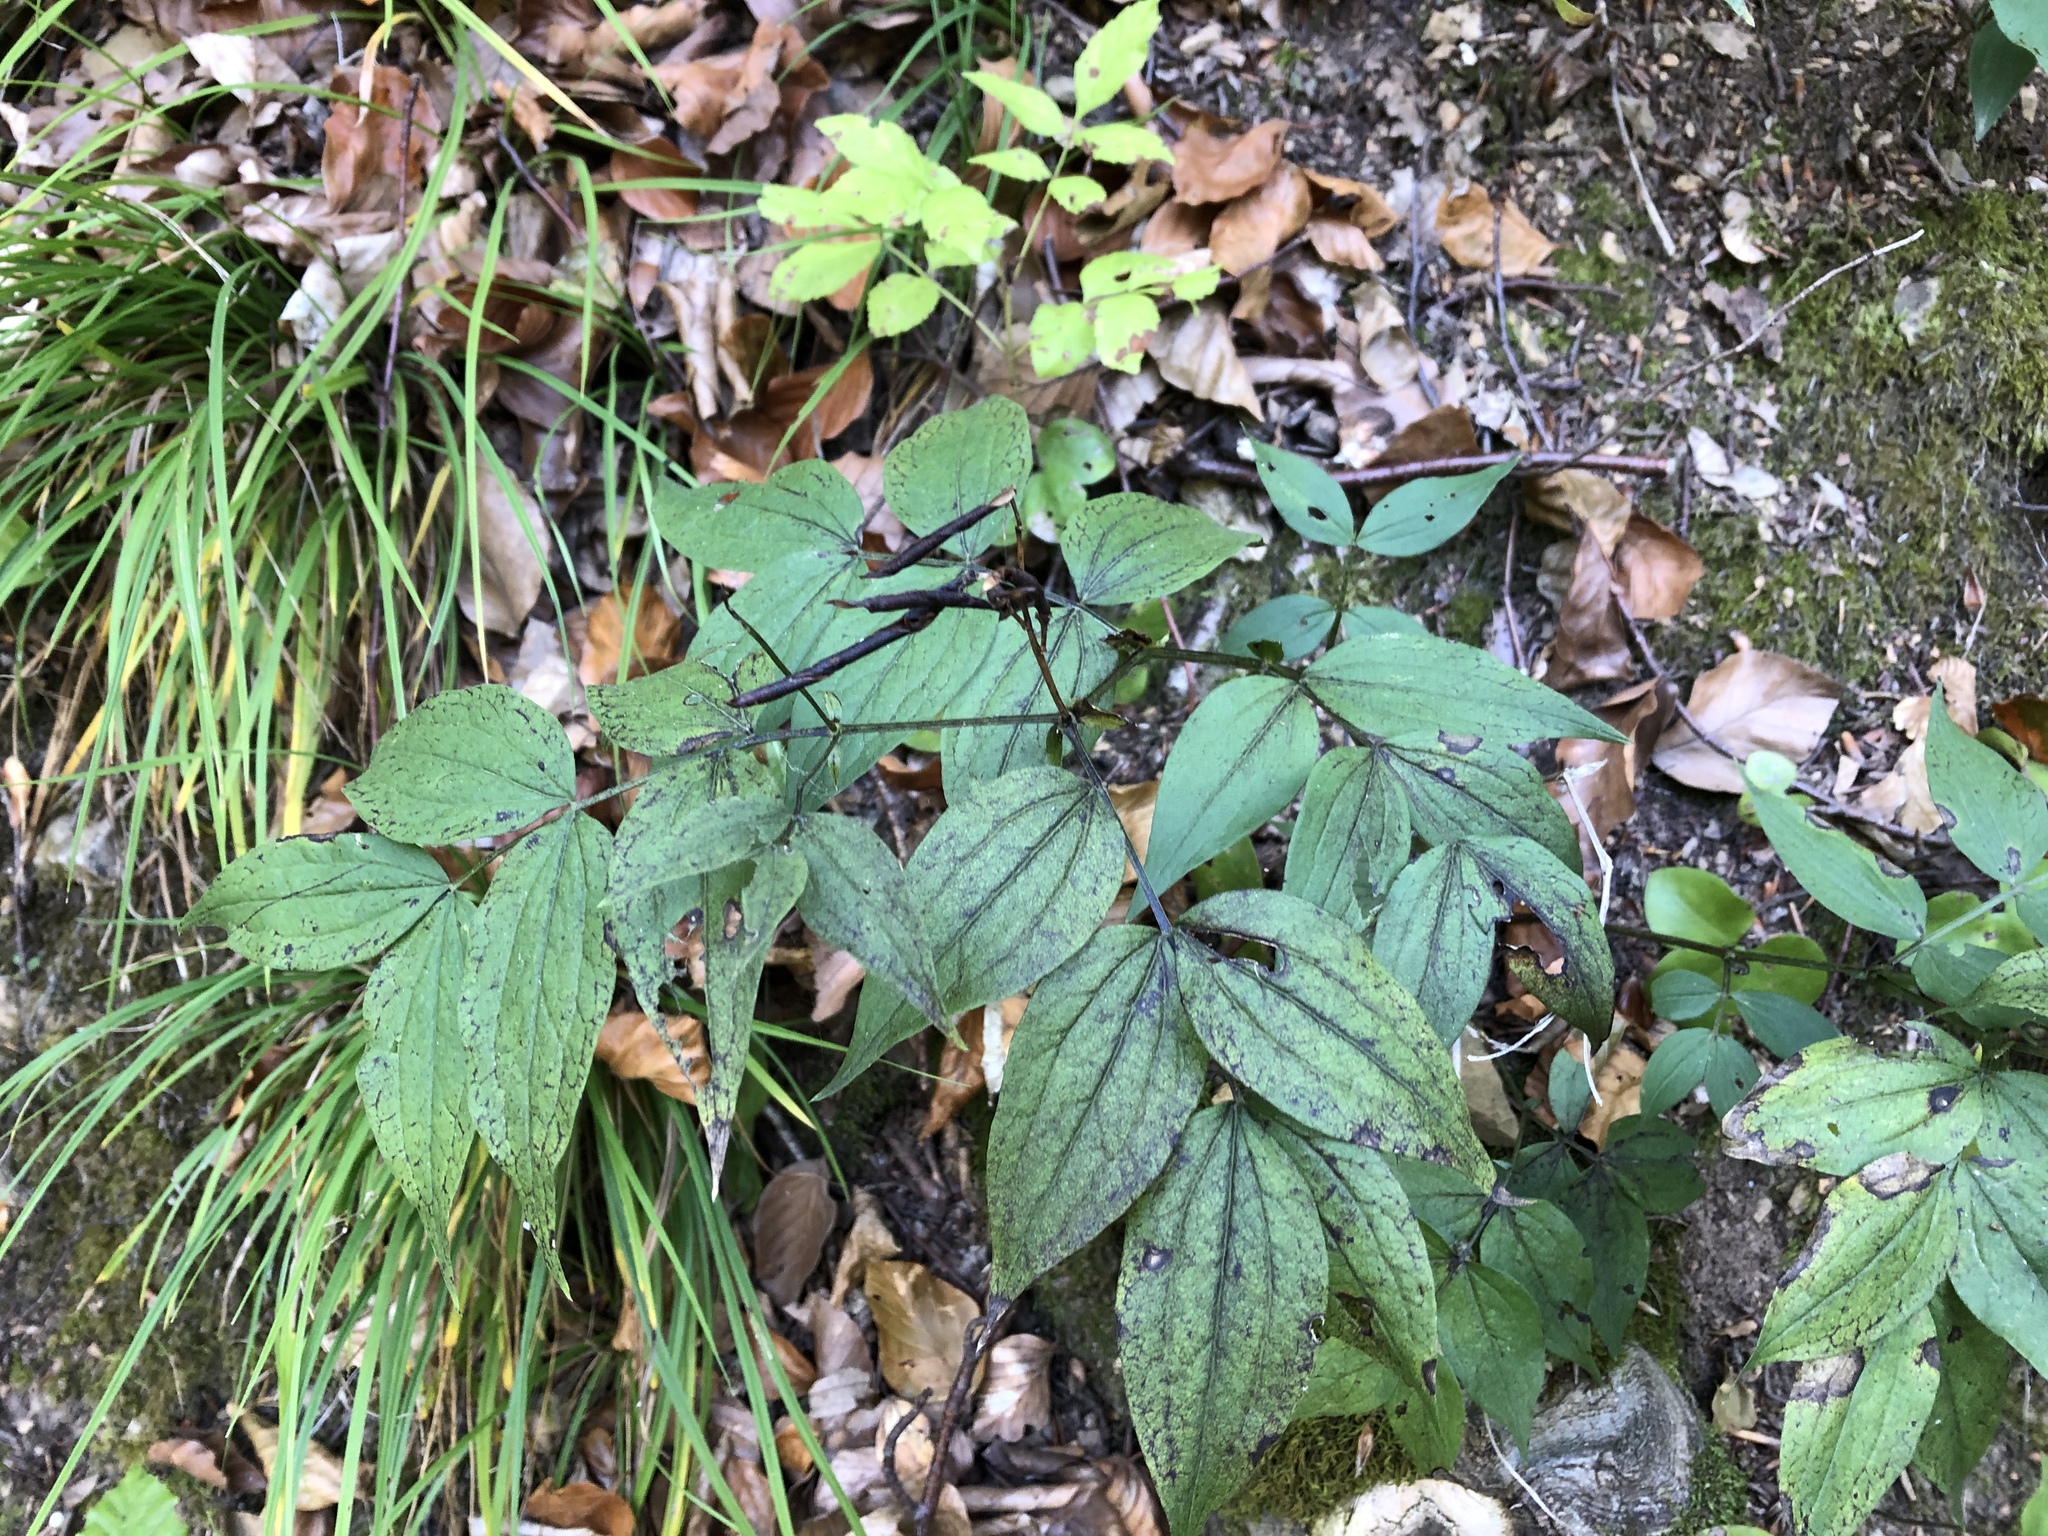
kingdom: Plantae
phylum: Tracheophyta
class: Magnoliopsida
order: Fabales
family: Fabaceae
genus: Lathyrus
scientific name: Lathyrus vernus
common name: Spring pea
